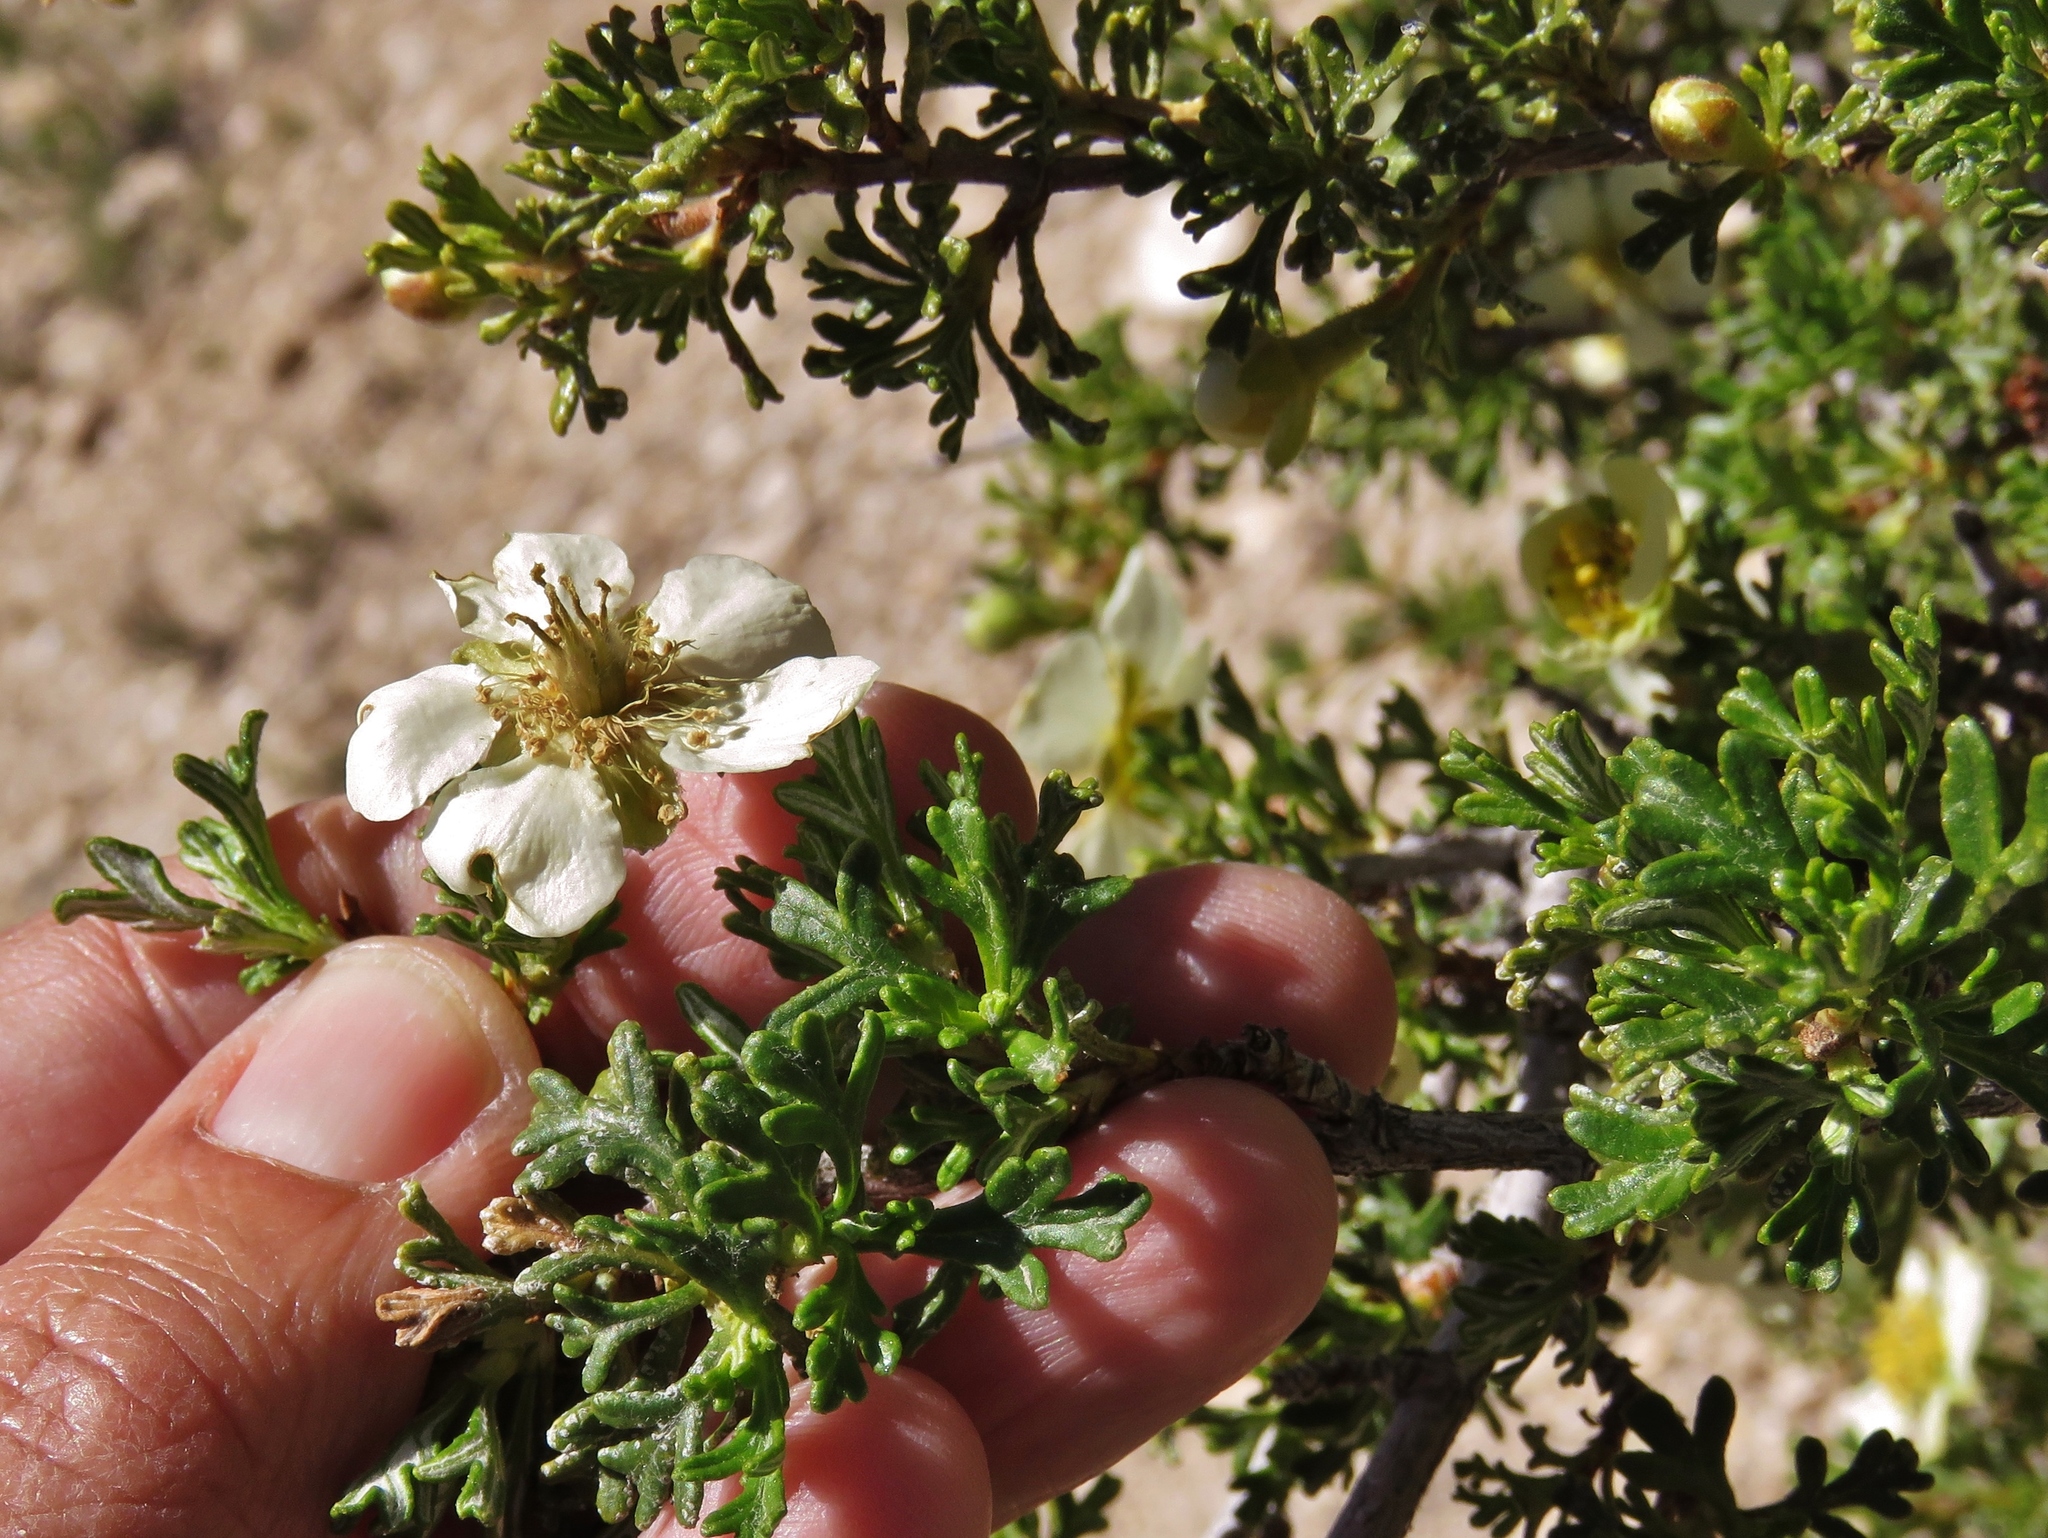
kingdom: Plantae
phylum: Tracheophyta
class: Magnoliopsida
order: Rosales
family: Rosaceae
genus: Purshia
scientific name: Purshia stansburiana
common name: Stansbury's cliffrose
